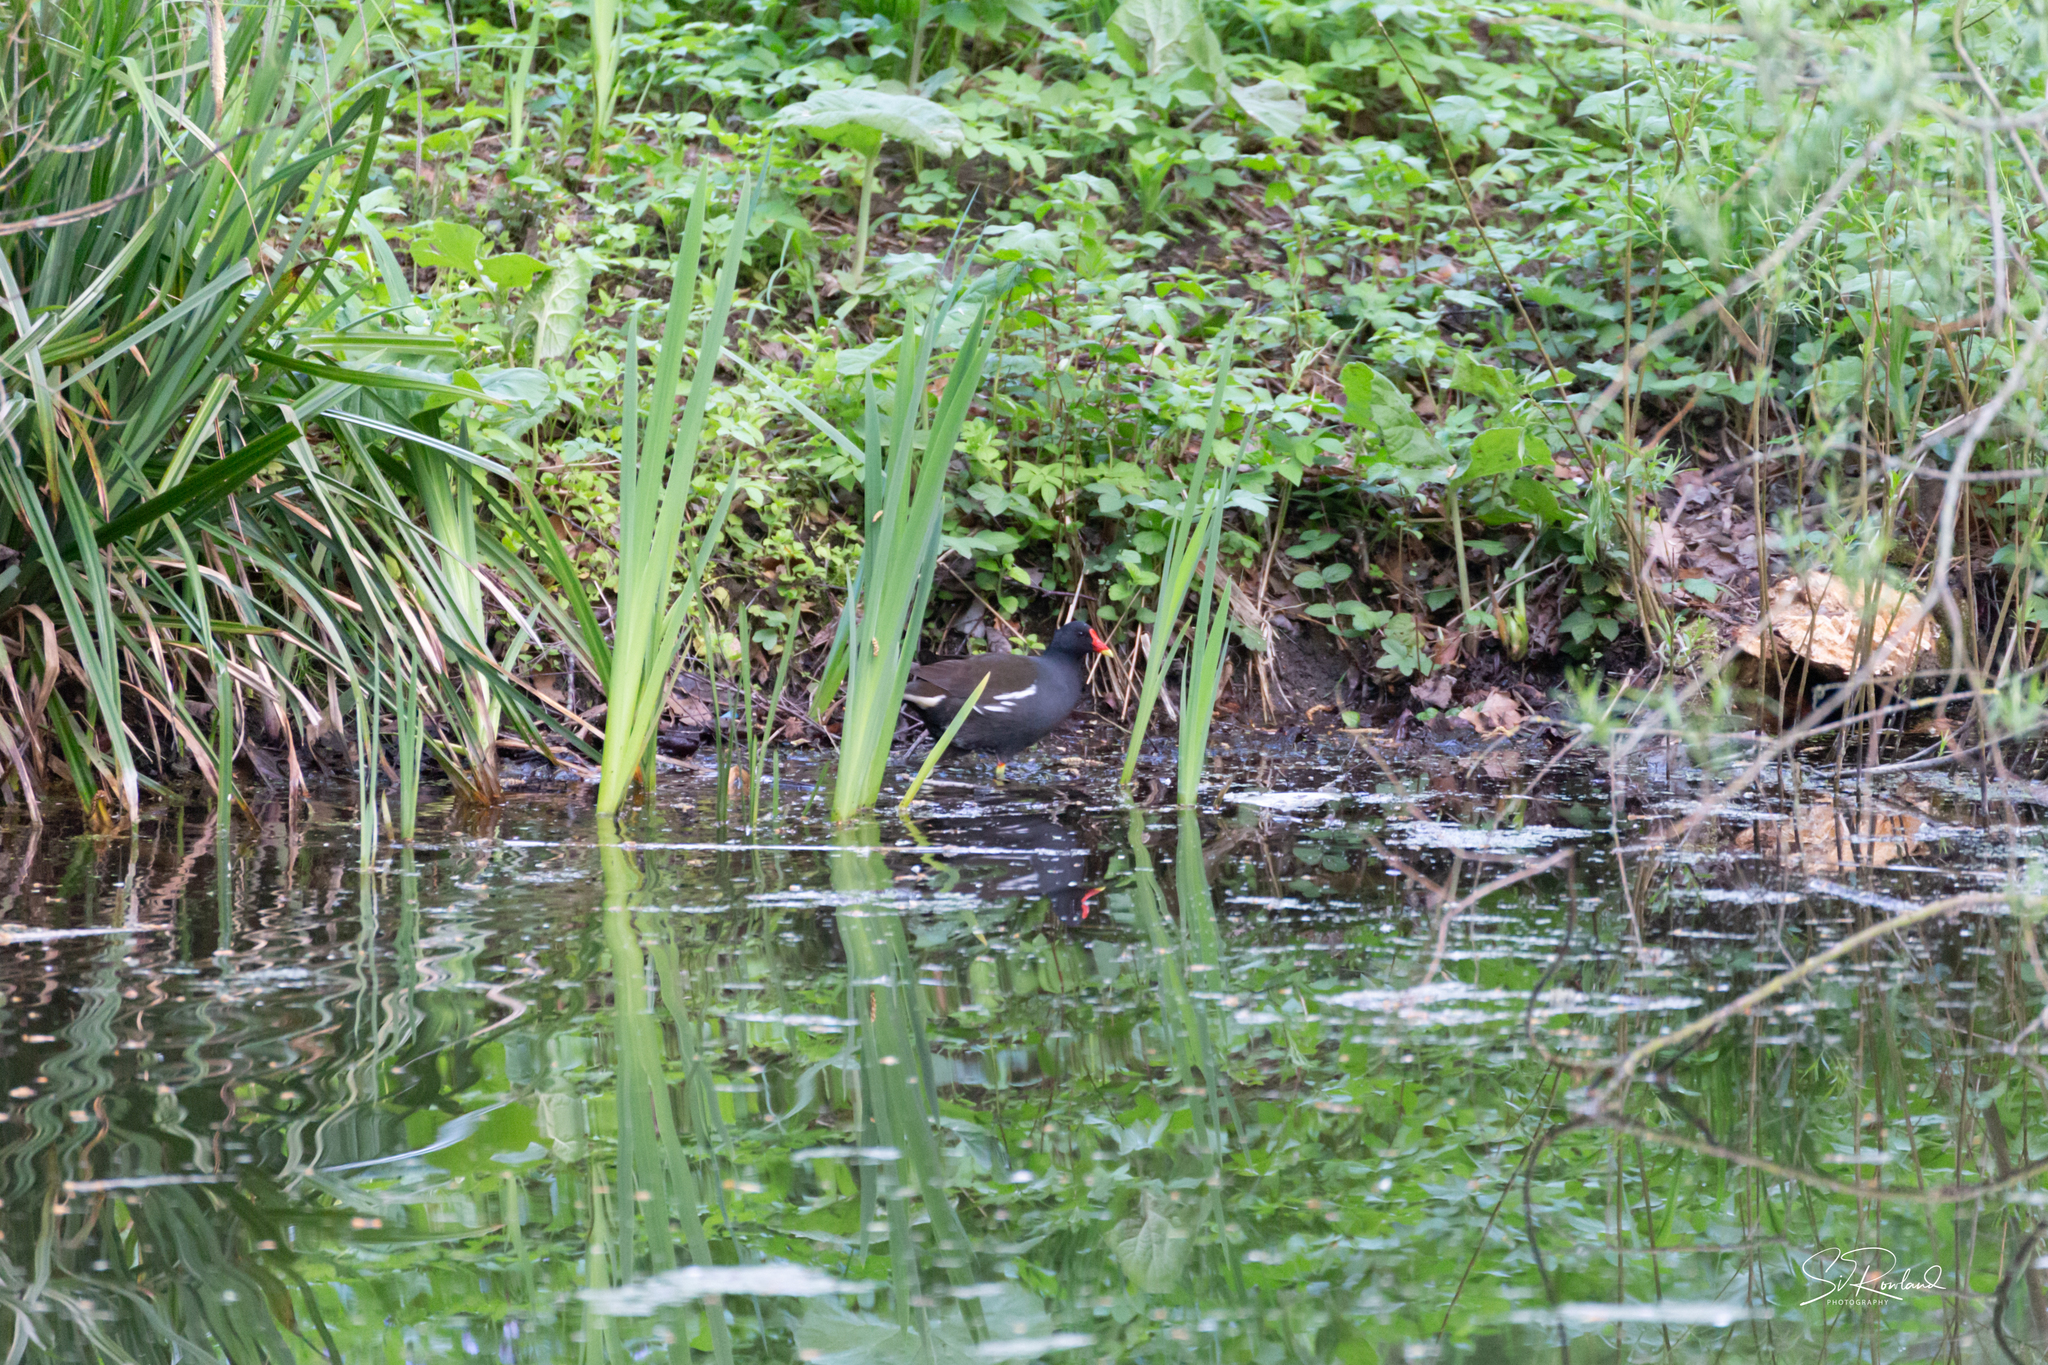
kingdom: Animalia
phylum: Chordata
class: Aves
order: Gruiformes
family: Rallidae
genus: Gallinula
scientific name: Gallinula chloropus
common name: Common moorhen
